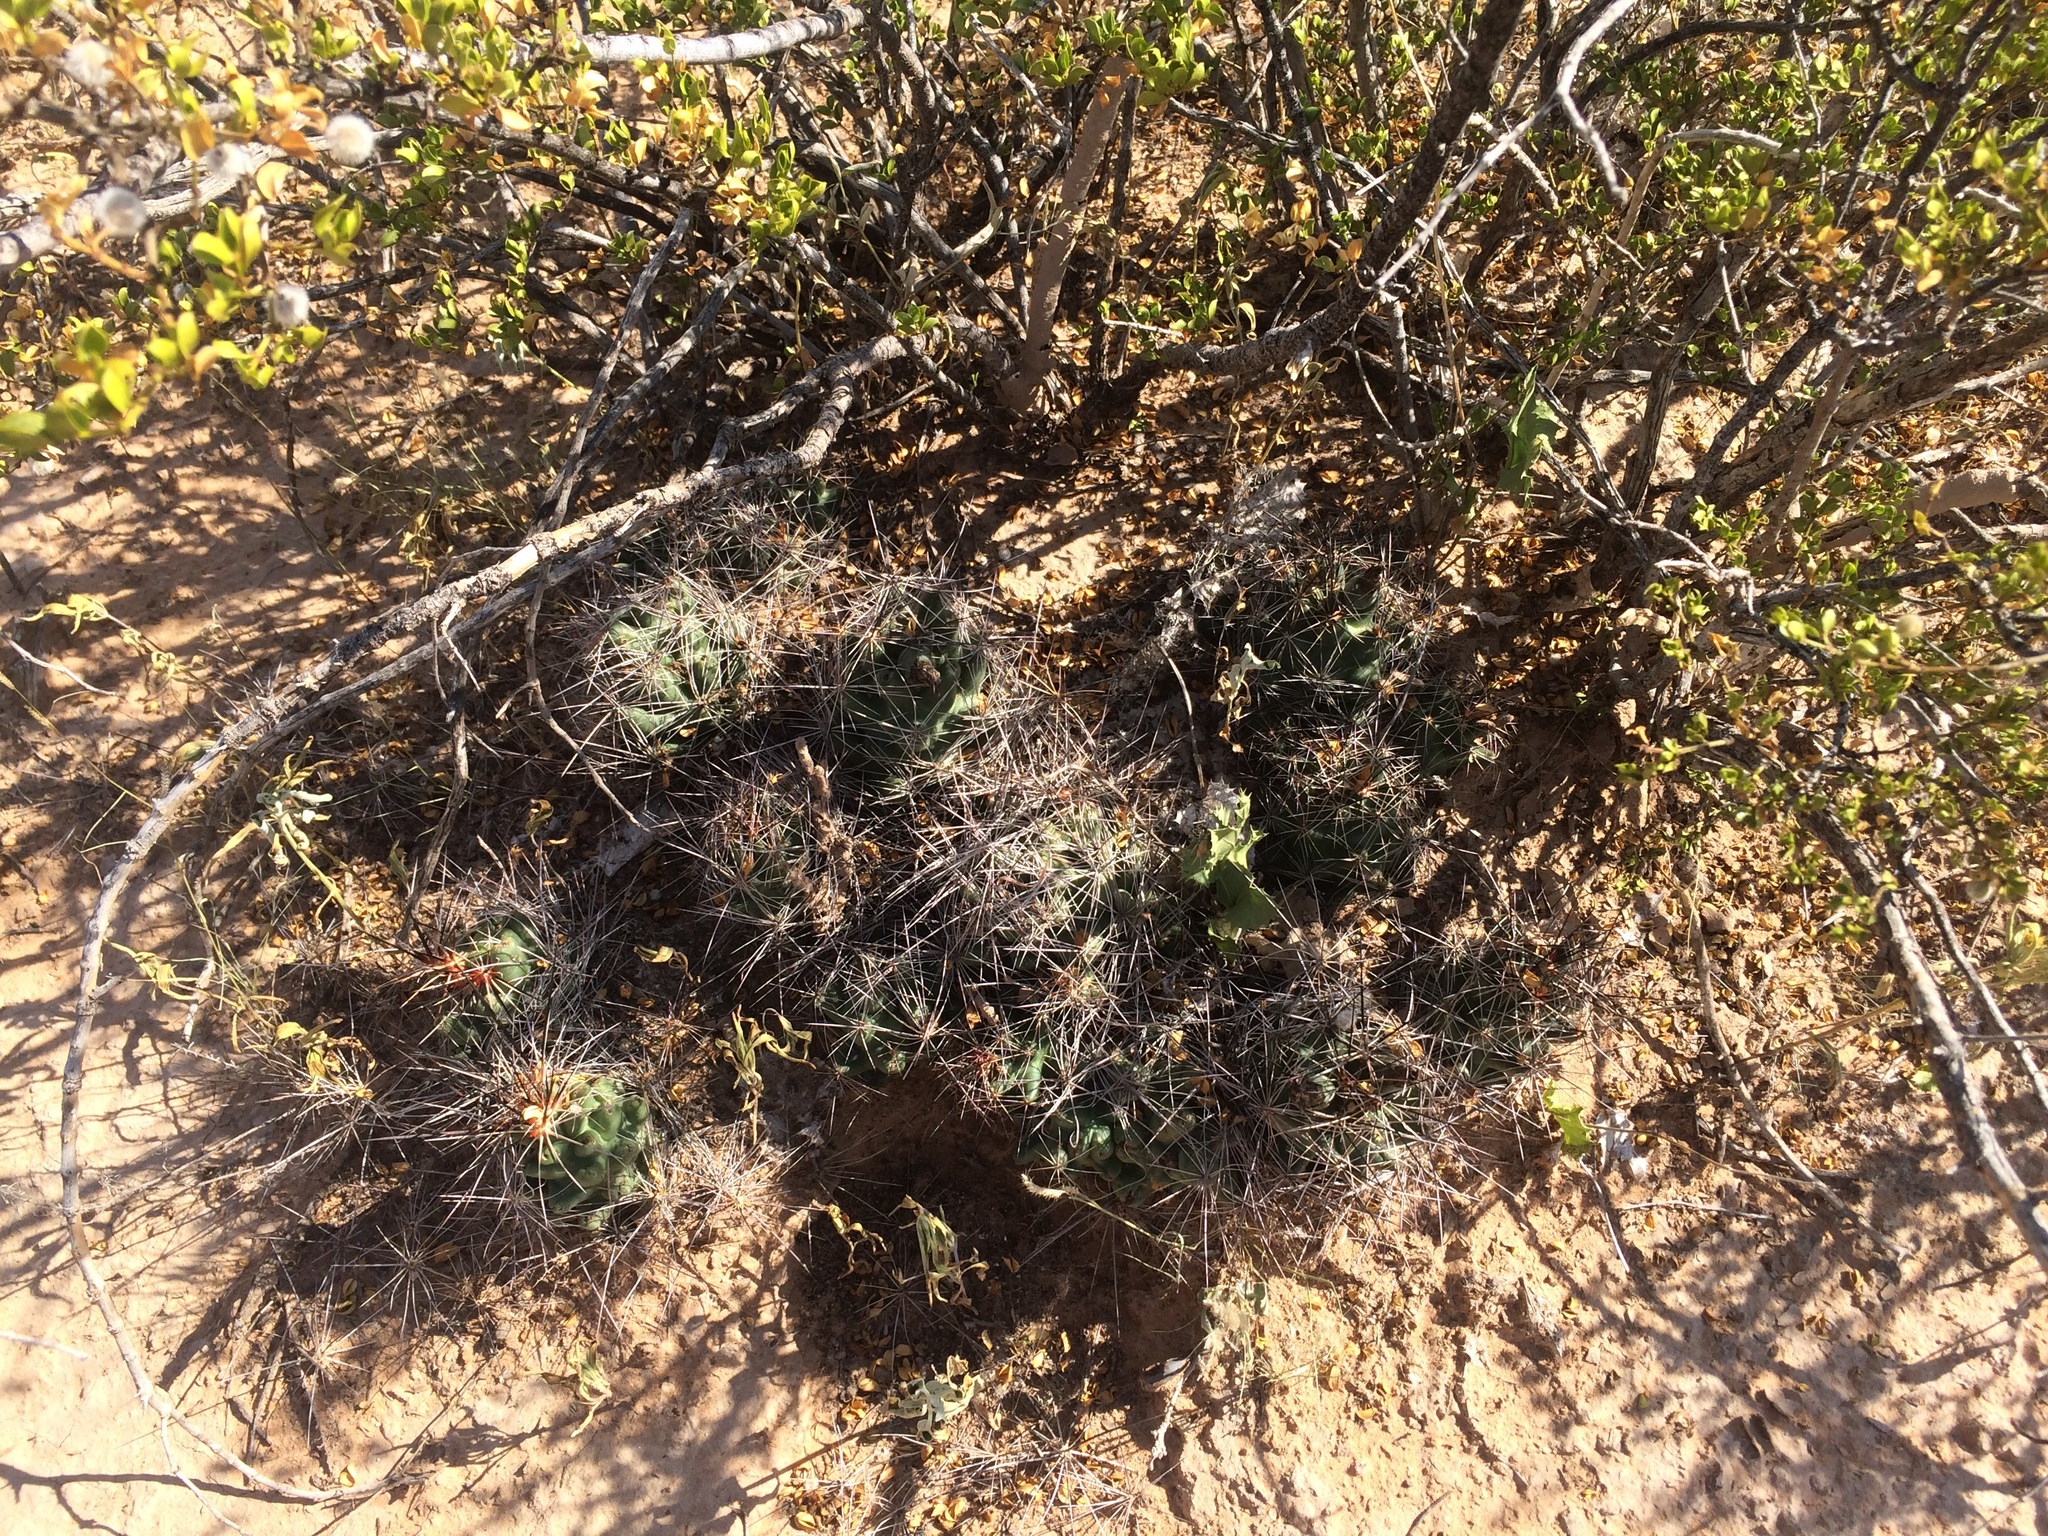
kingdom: Plantae
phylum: Tracheophyta
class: Magnoliopsida
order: Caryophyllales
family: Cactaceae
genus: Coryphantha
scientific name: Coryphantha macromeris
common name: Nipple beehive cactus
